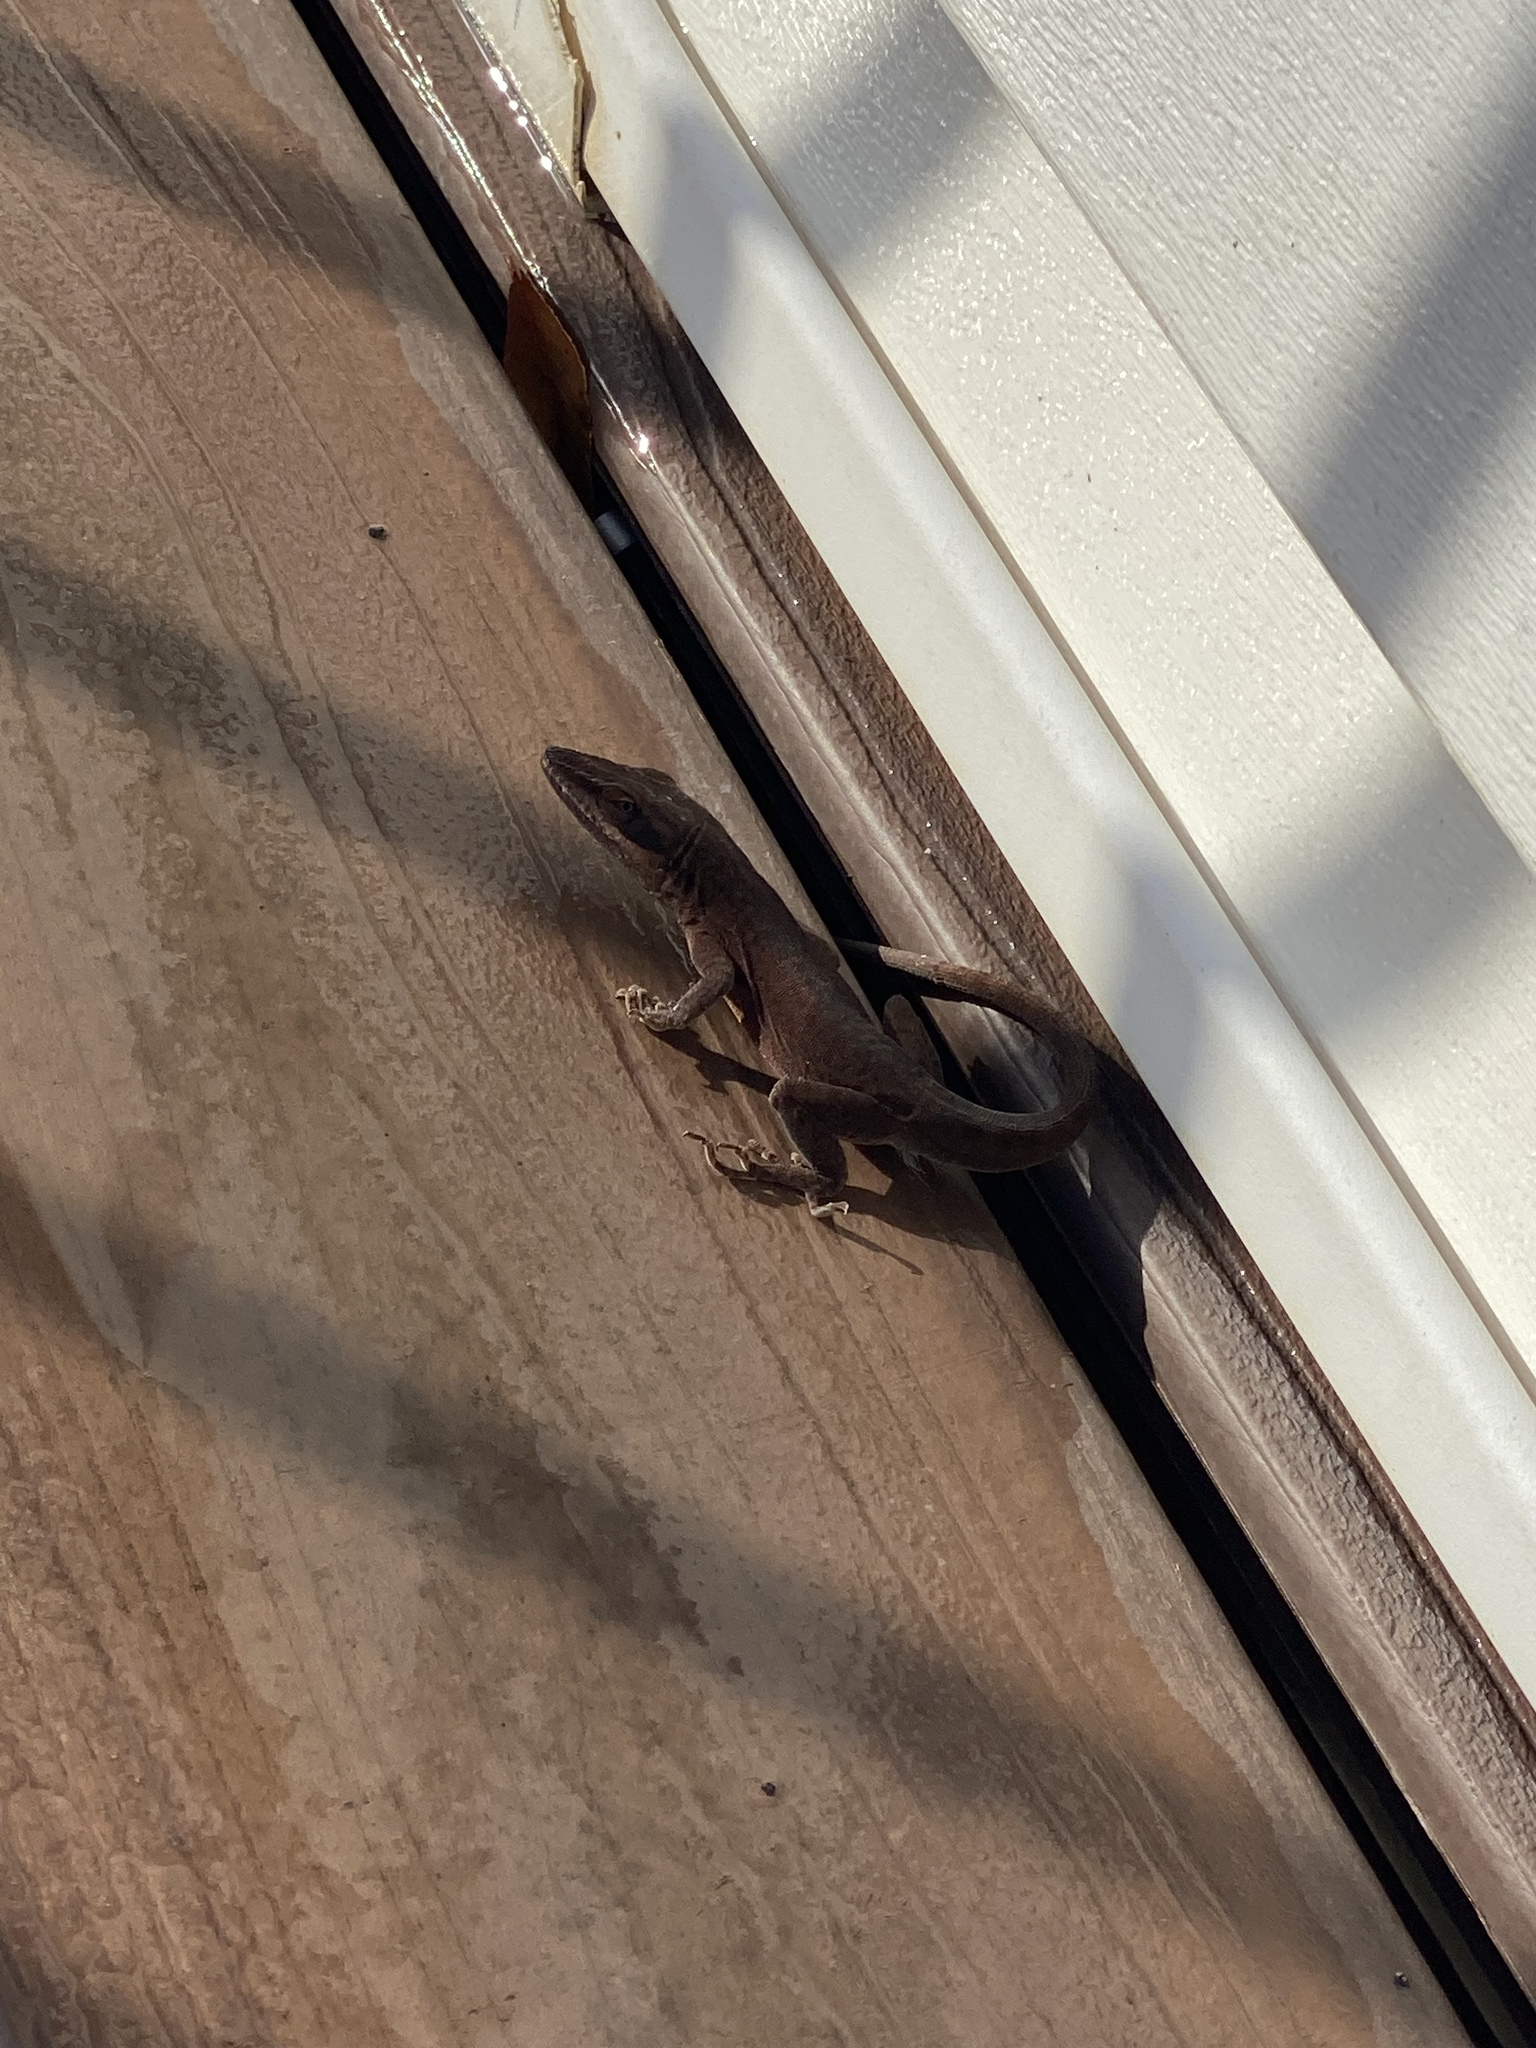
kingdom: Animalia
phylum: Chordata
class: Squamata
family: Dactyloidae
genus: Anolis
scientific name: Anolis carolinensis
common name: Green anole
